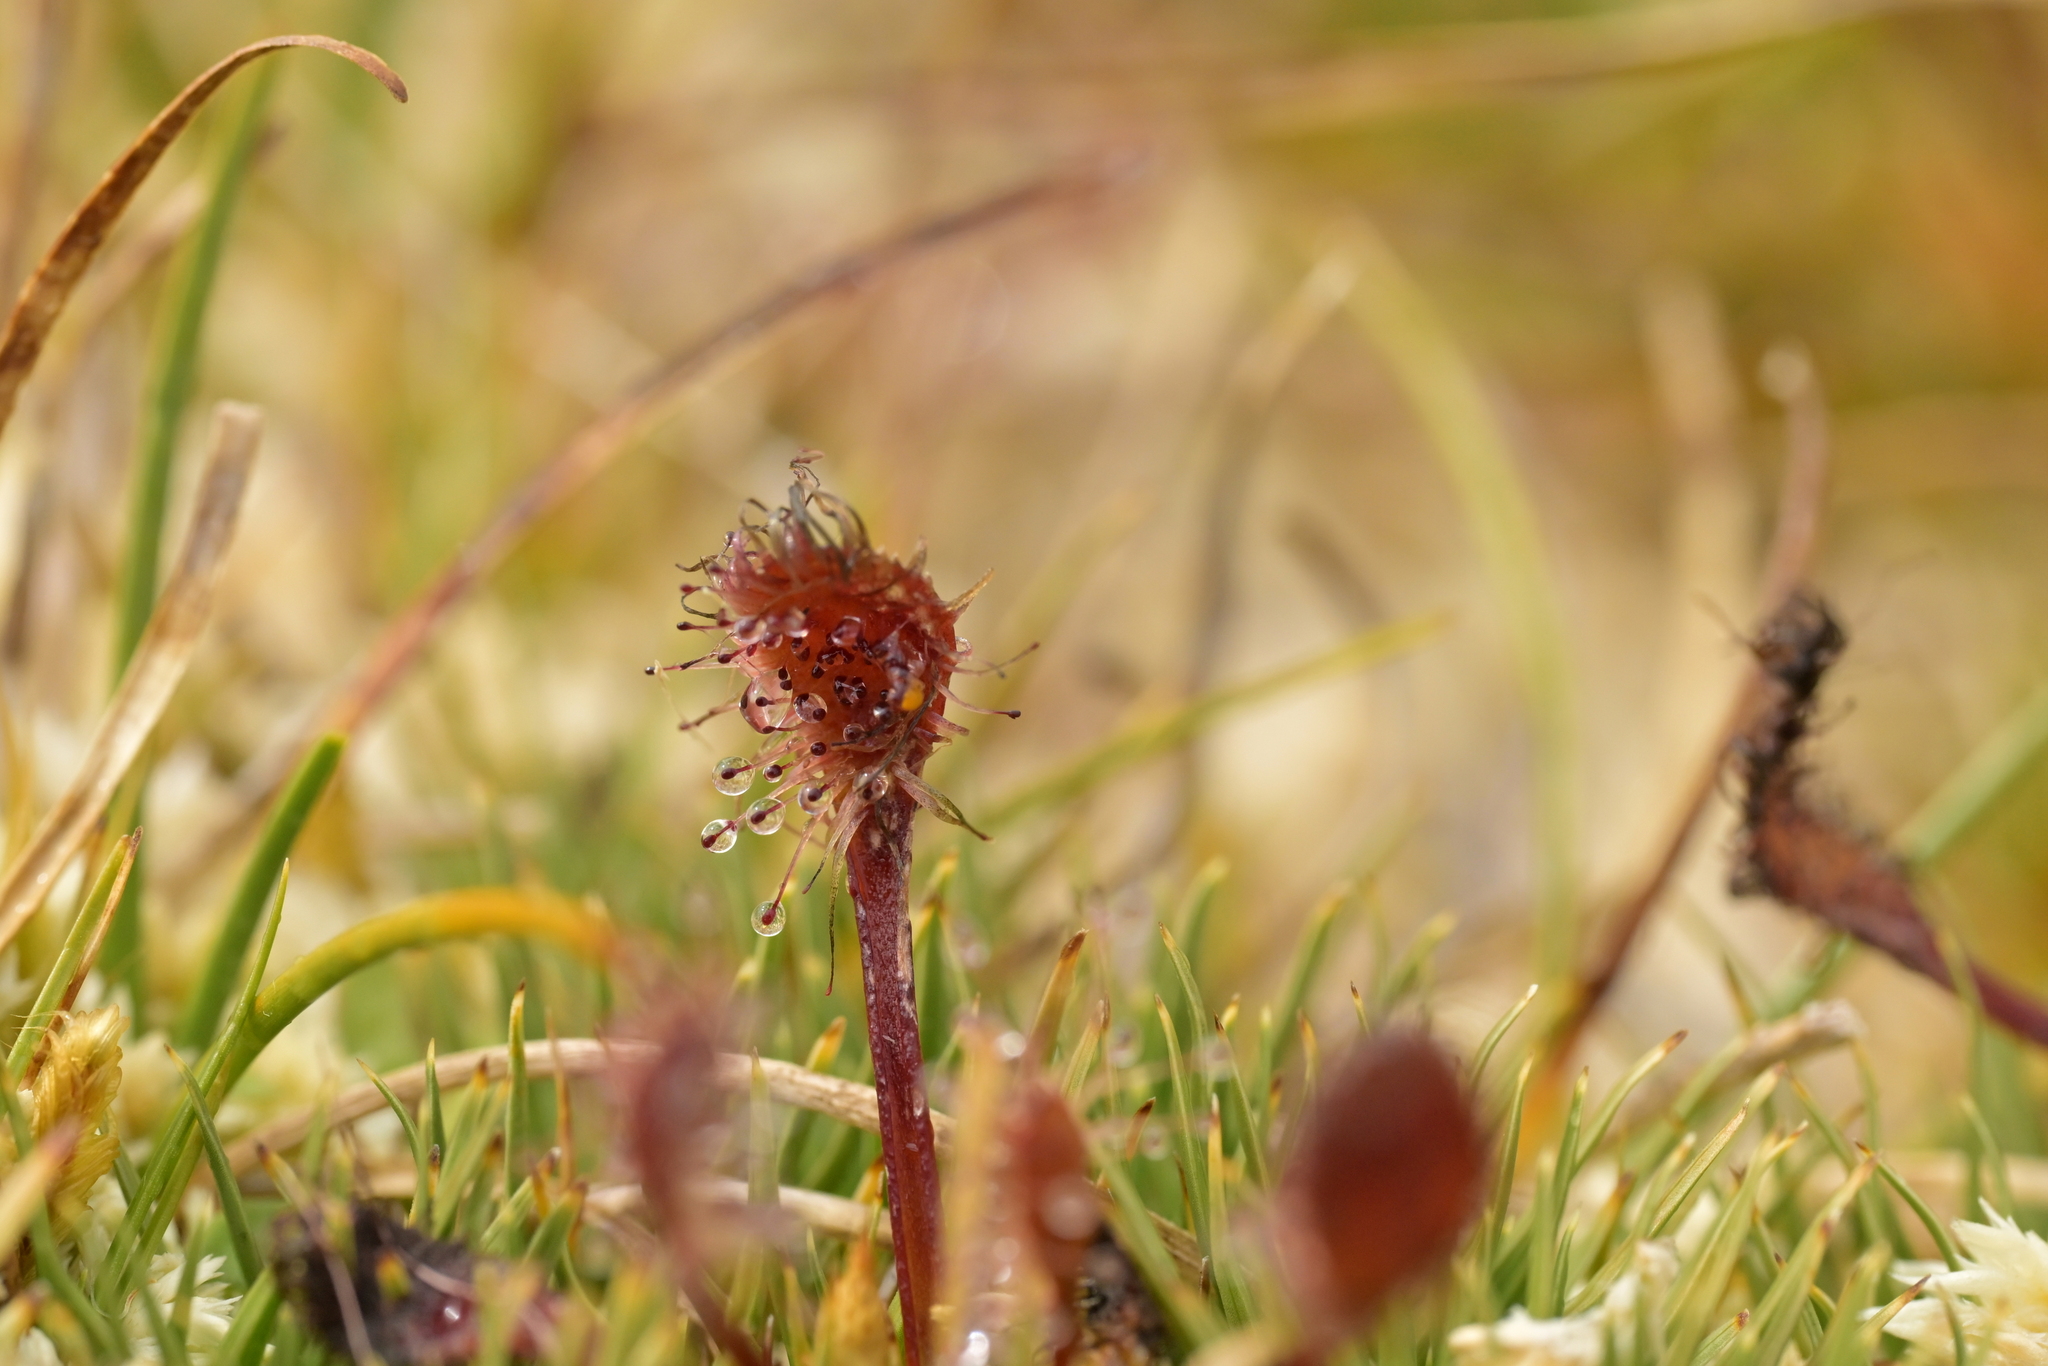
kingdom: Plantae
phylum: Tracheophyta
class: Magnoliopsida
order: Caryophyllales
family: Droseraceae
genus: Drosera
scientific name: Drosera stenopetala
